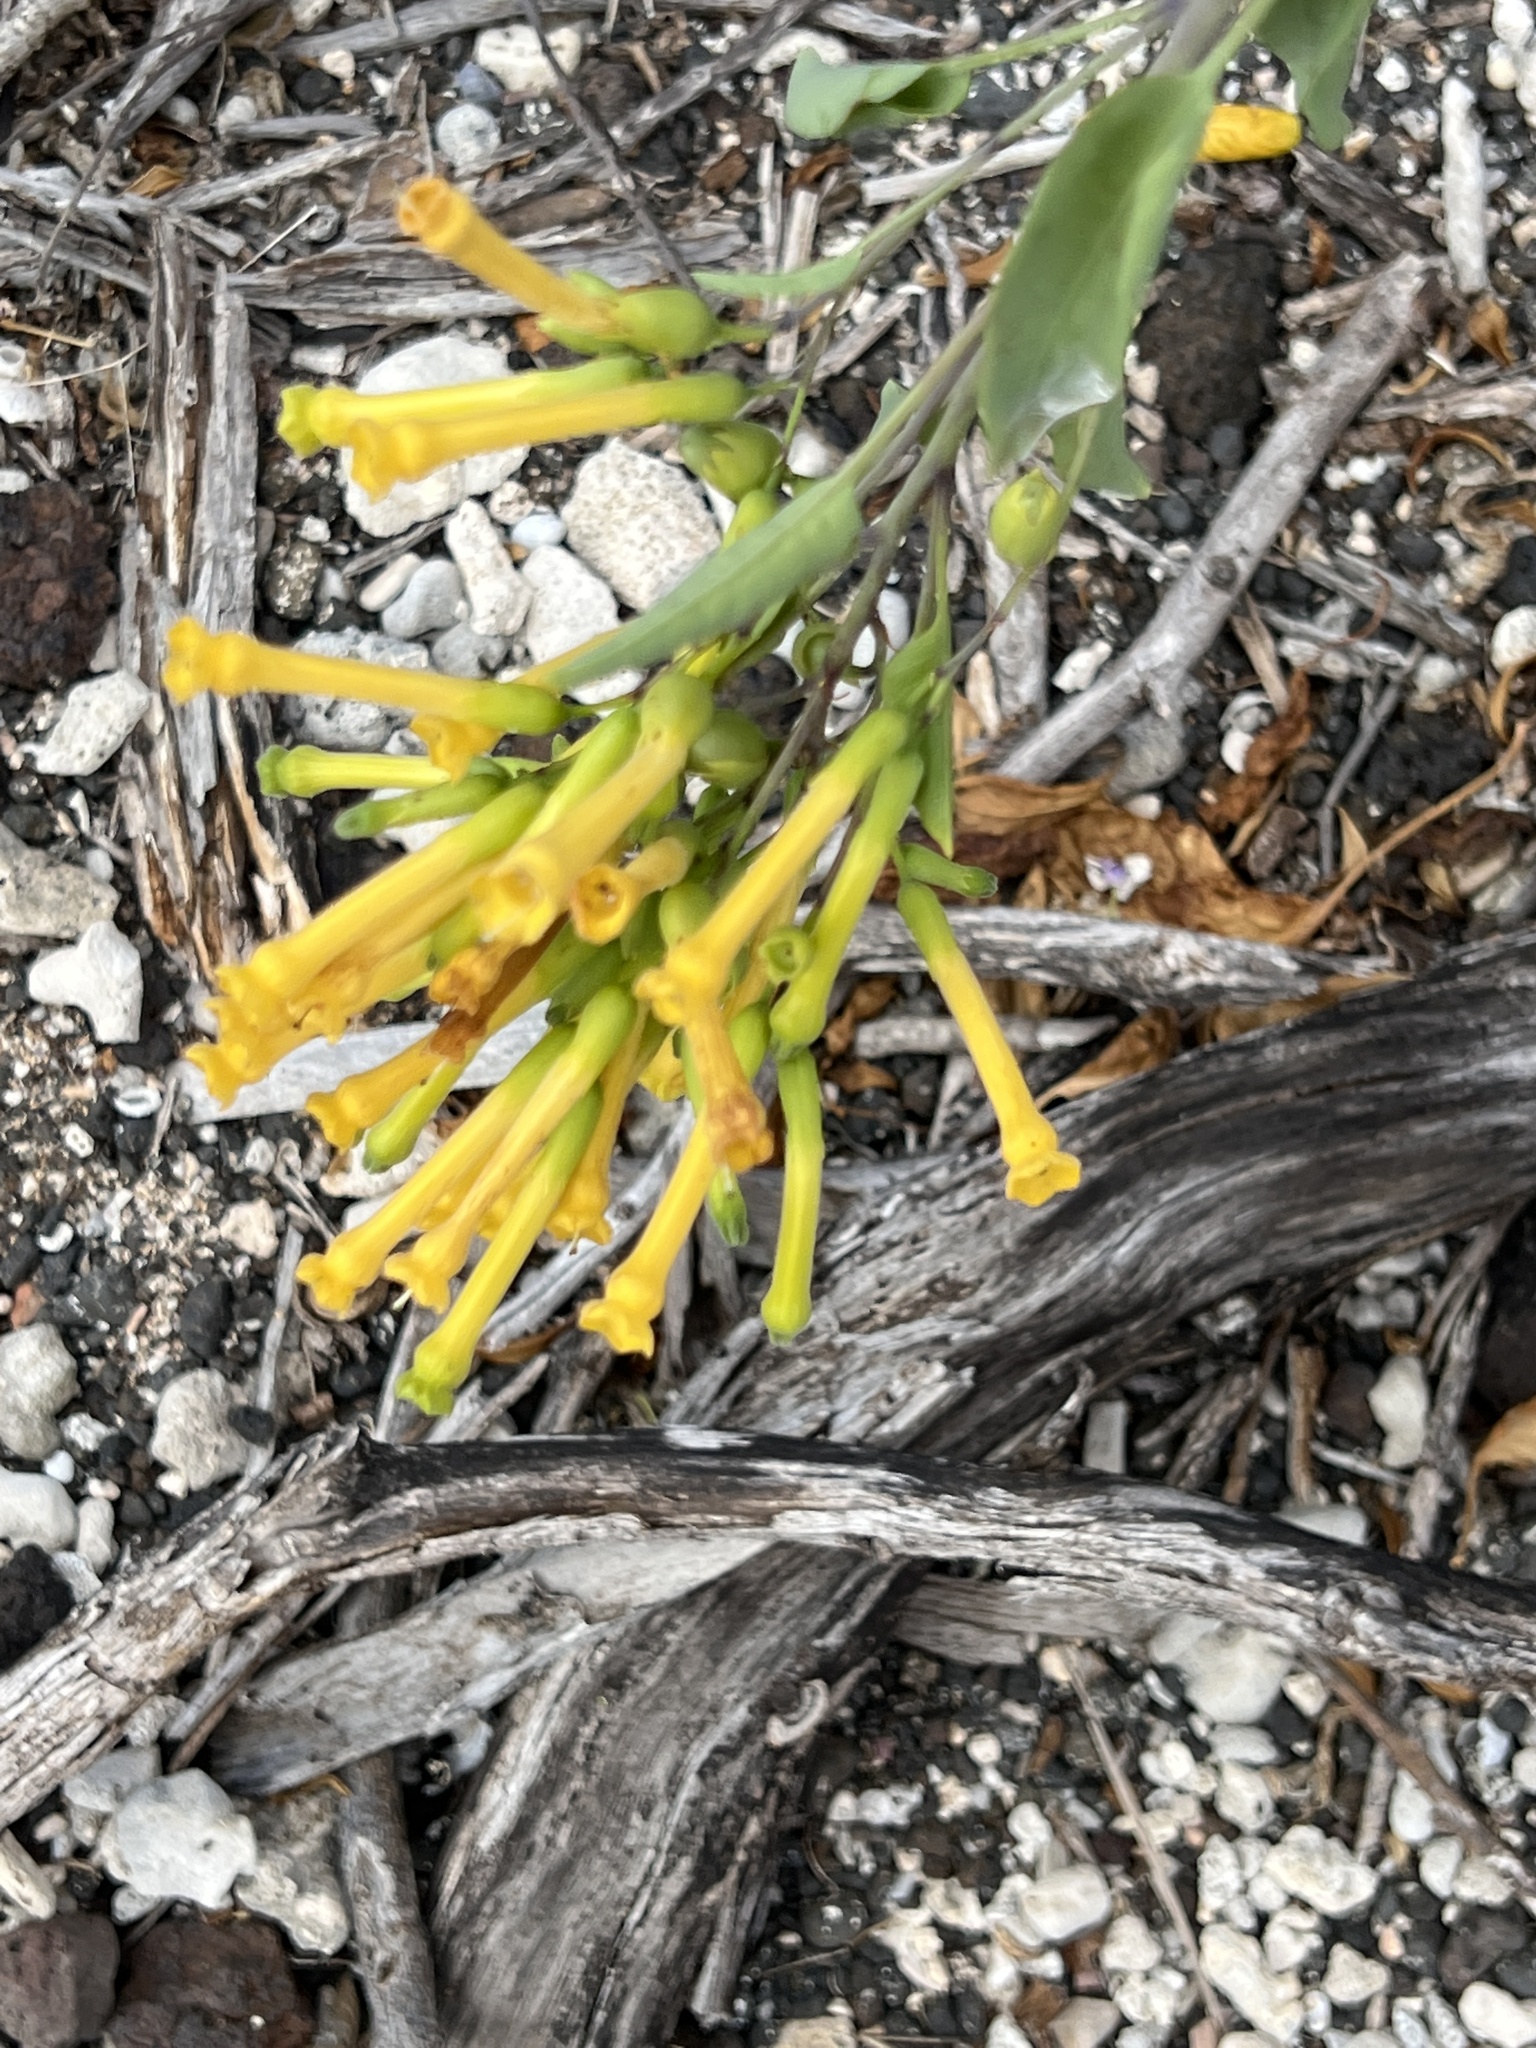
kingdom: Plantae
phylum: Tracheophyta
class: Magnoliopsida
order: Solanales
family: Solanaceae
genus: Nicotiana
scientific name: Nicotiana glauca
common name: Tree tobacco
